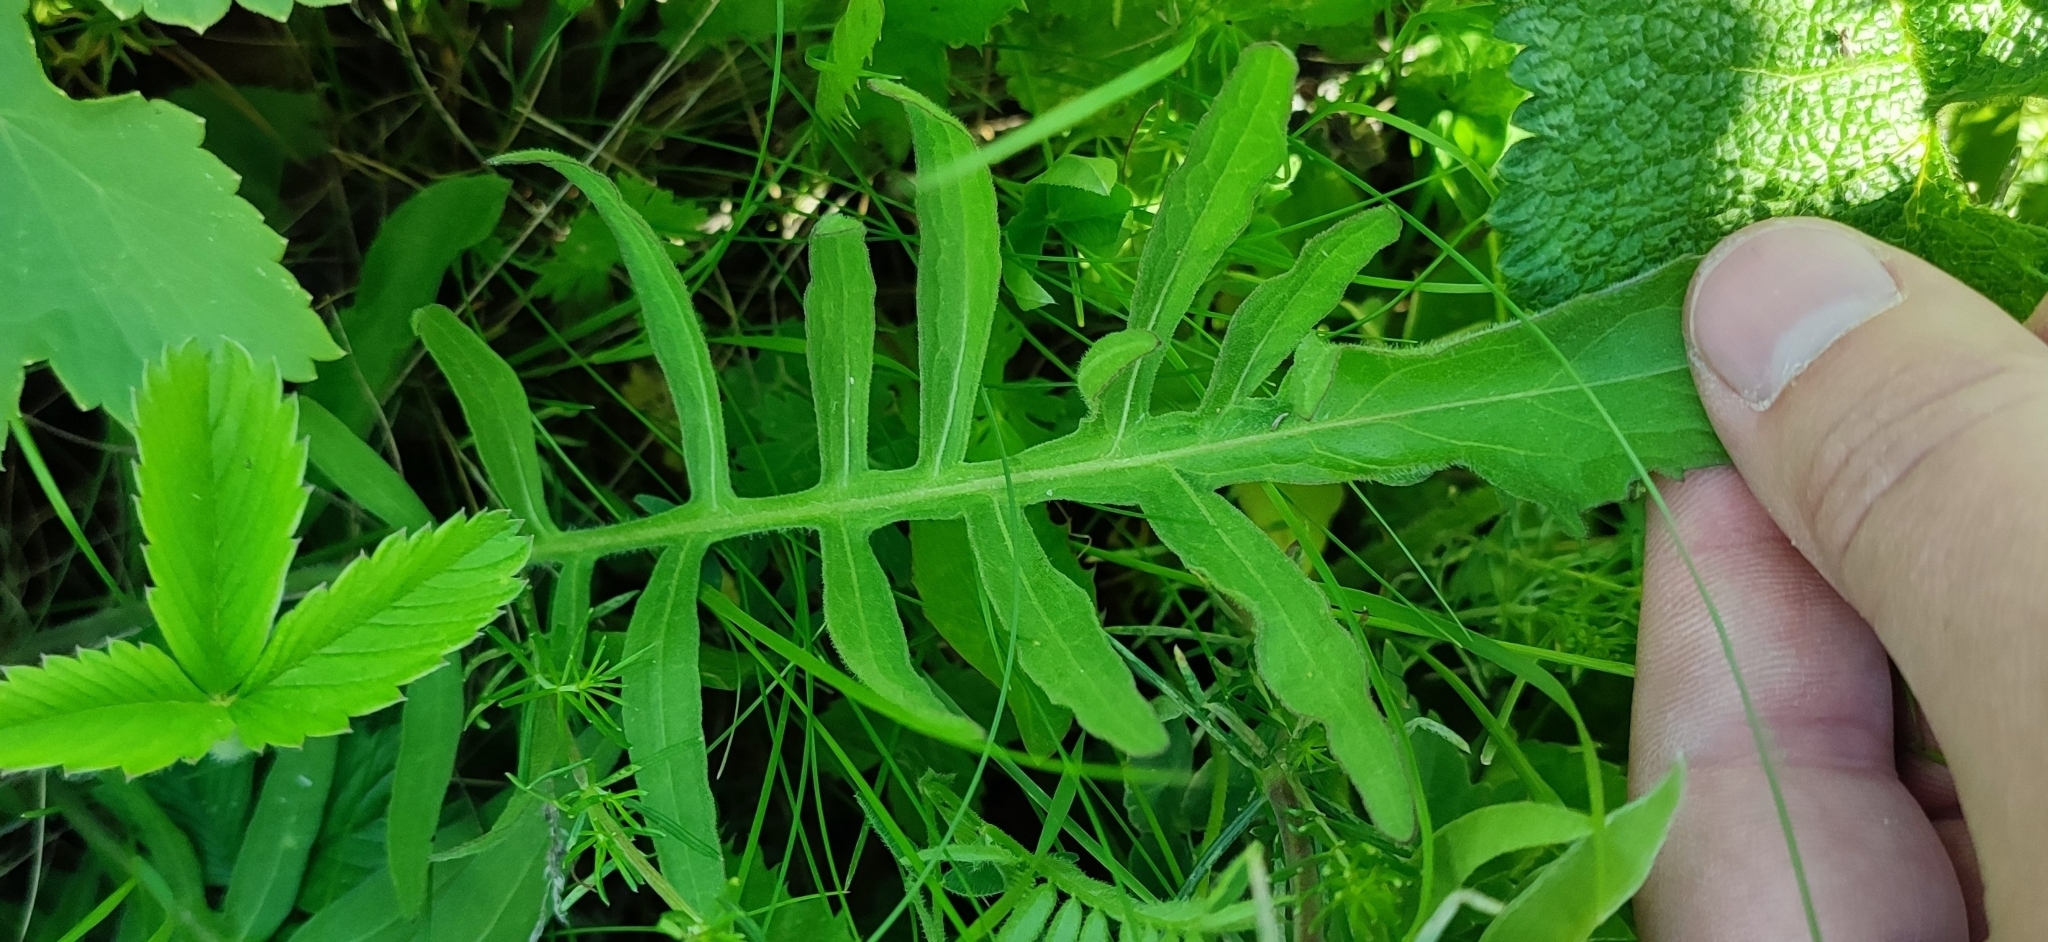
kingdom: Plantae
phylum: Tracheophyta
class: Magnoliopsida
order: Asterales
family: Asteraceae
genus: Centaurea
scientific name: Centaurea scabiosa
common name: Greater knapweed
